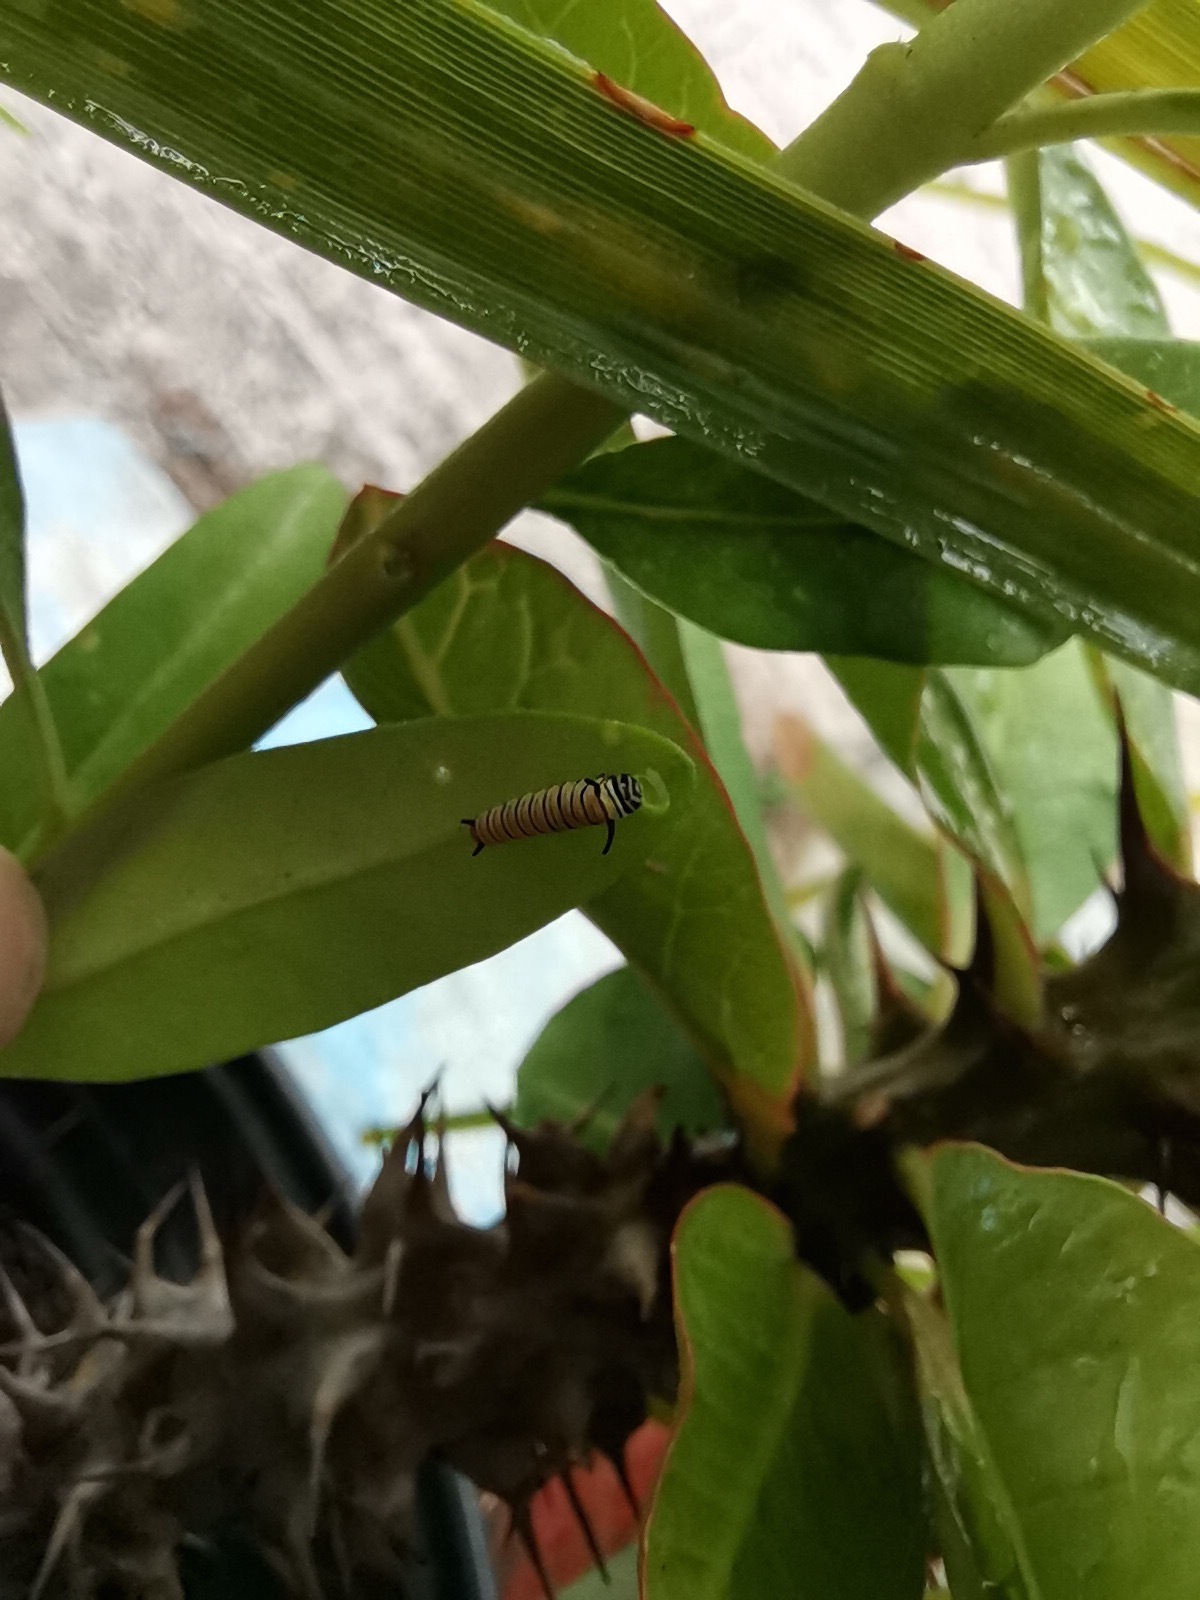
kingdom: Animalia
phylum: Arthropoda
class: Insecta
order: Lepidoptera
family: Nymphalidae
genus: Danaus
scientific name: Danaus plexippus
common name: Monarch
